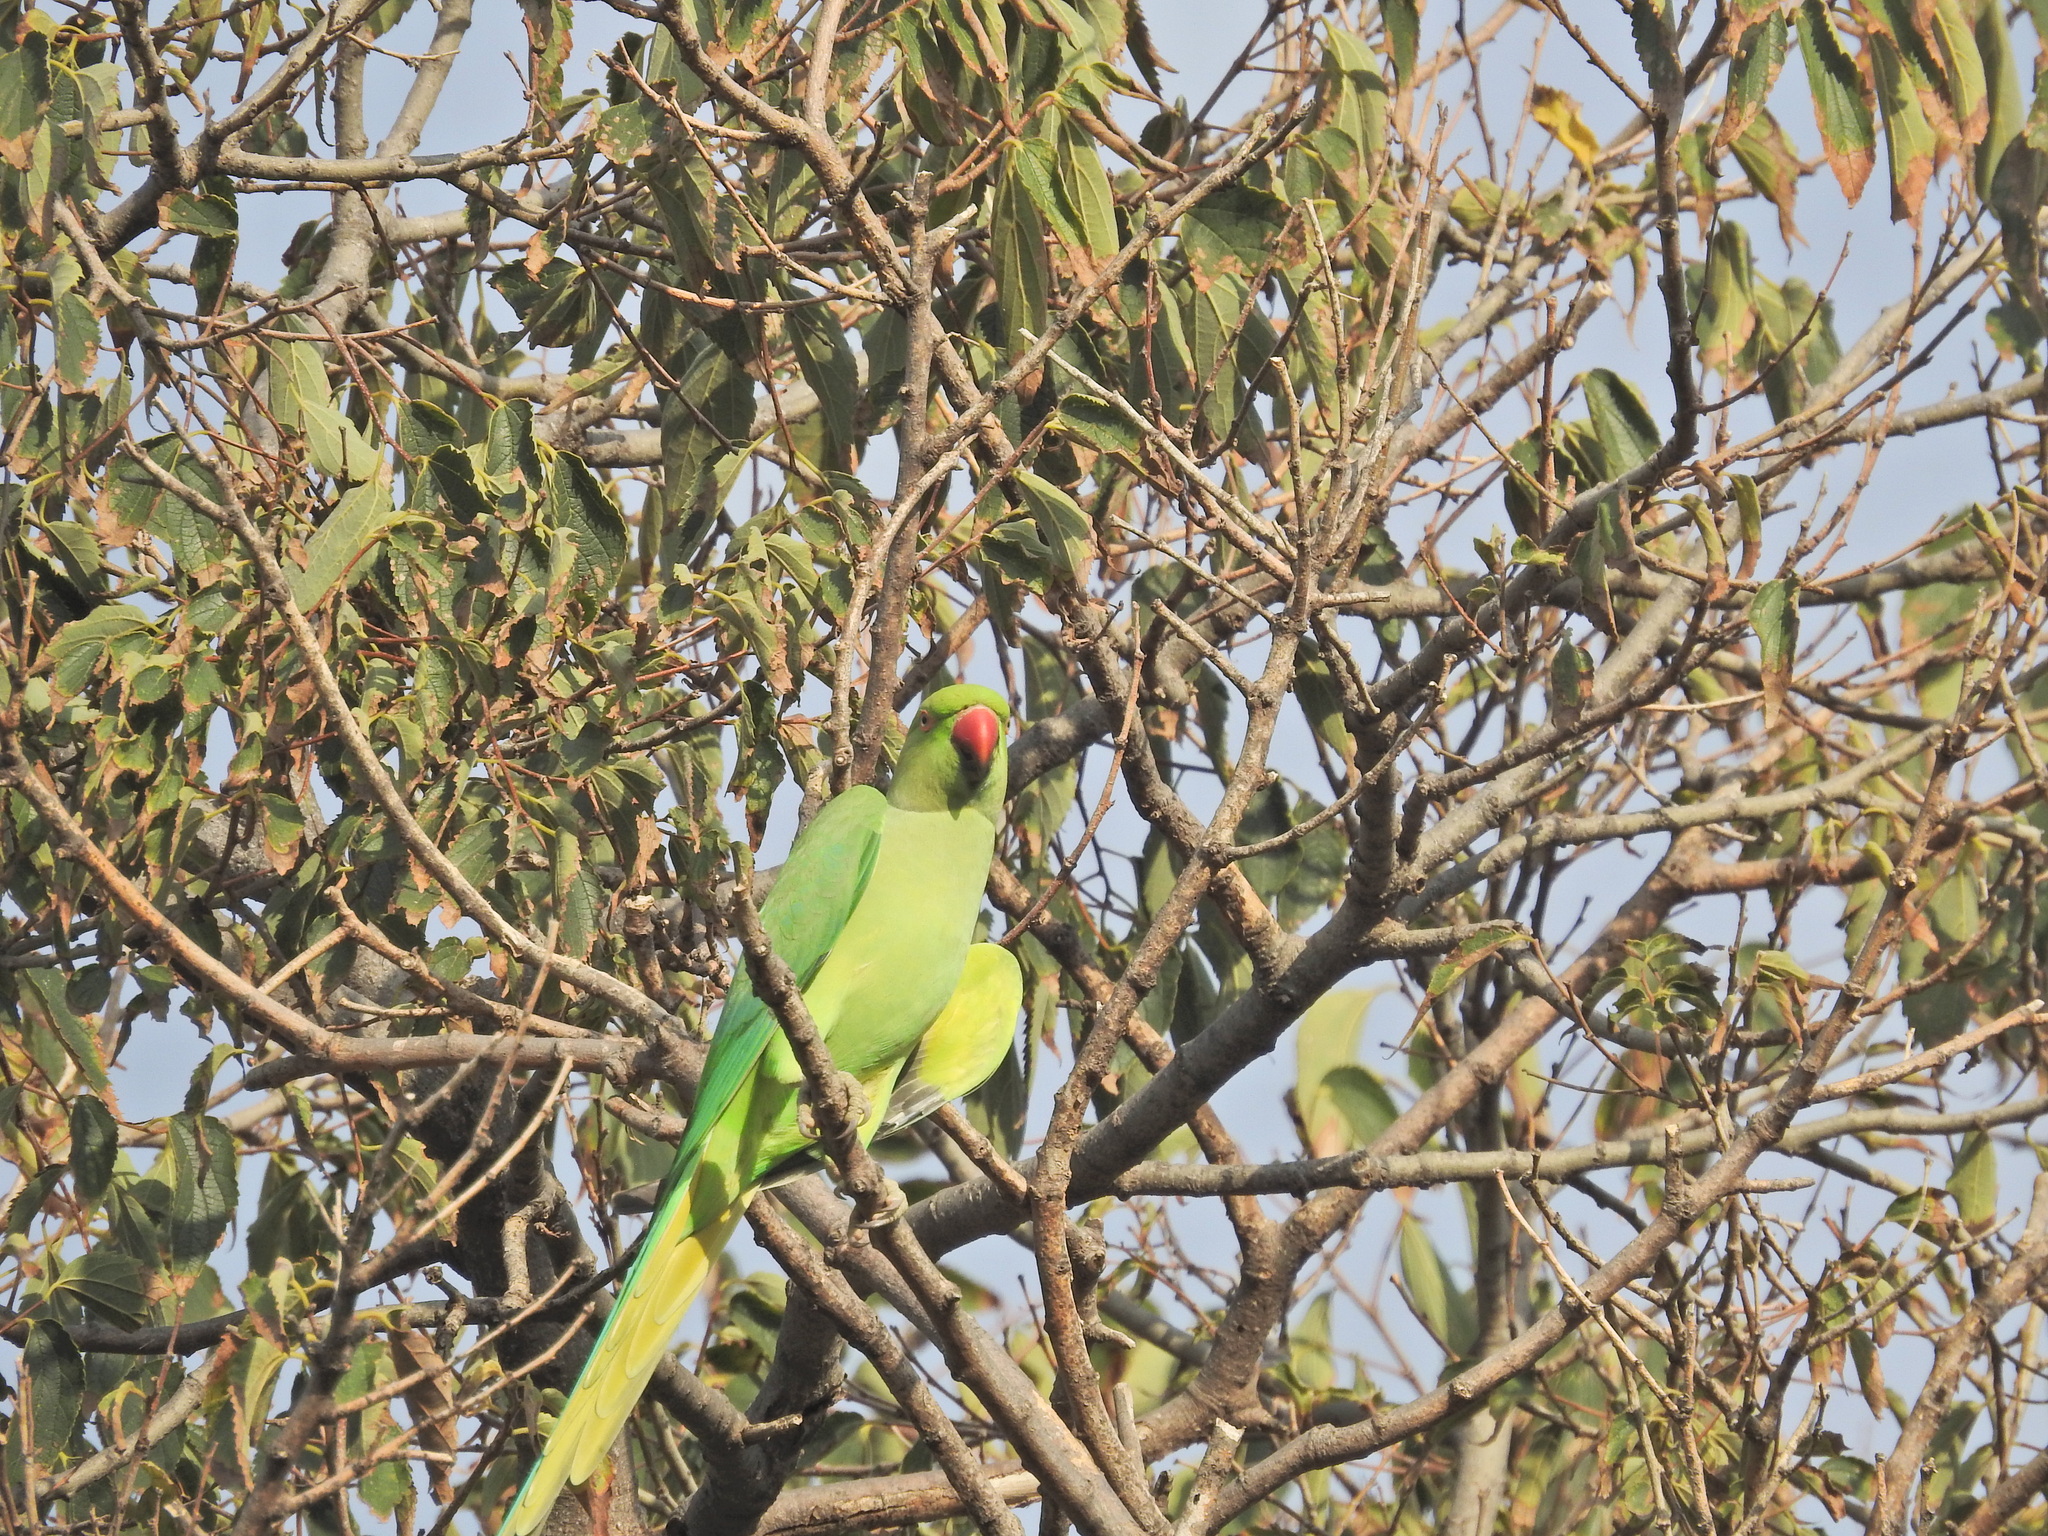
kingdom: Animalia
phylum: Chordata
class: Aves
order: Psittaciformes
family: Psittacidae
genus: Psittacula
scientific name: Psittacula krameri
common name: Rose-ringed parakeet
